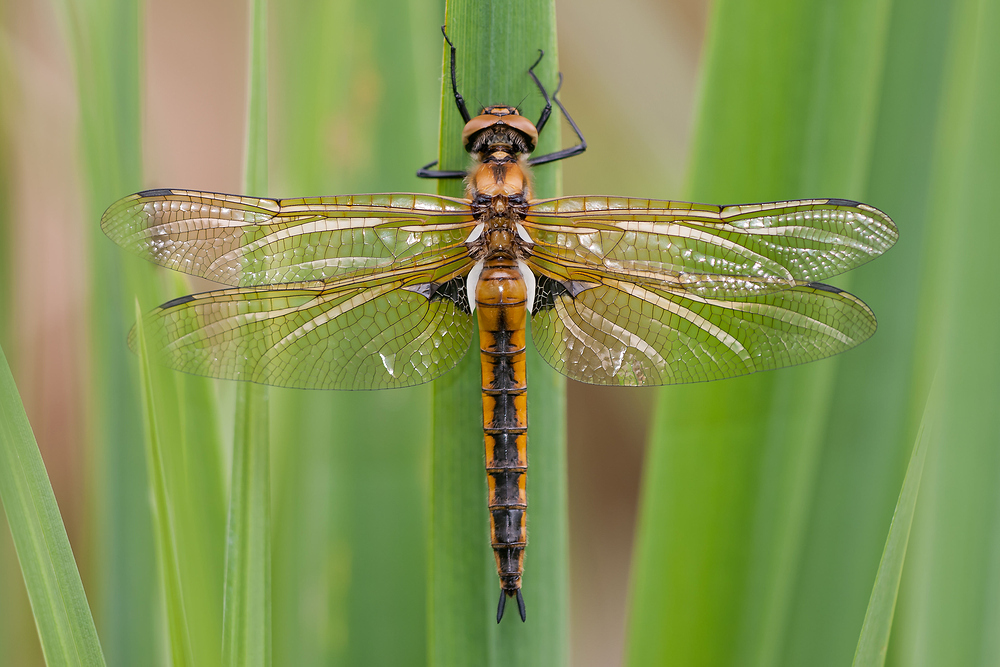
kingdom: Animalia
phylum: Arthropoda
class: Insecta
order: Odonata
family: Corduliidae
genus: Epitheca
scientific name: Epitheca bimaculata
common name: Eurasian baskettail
